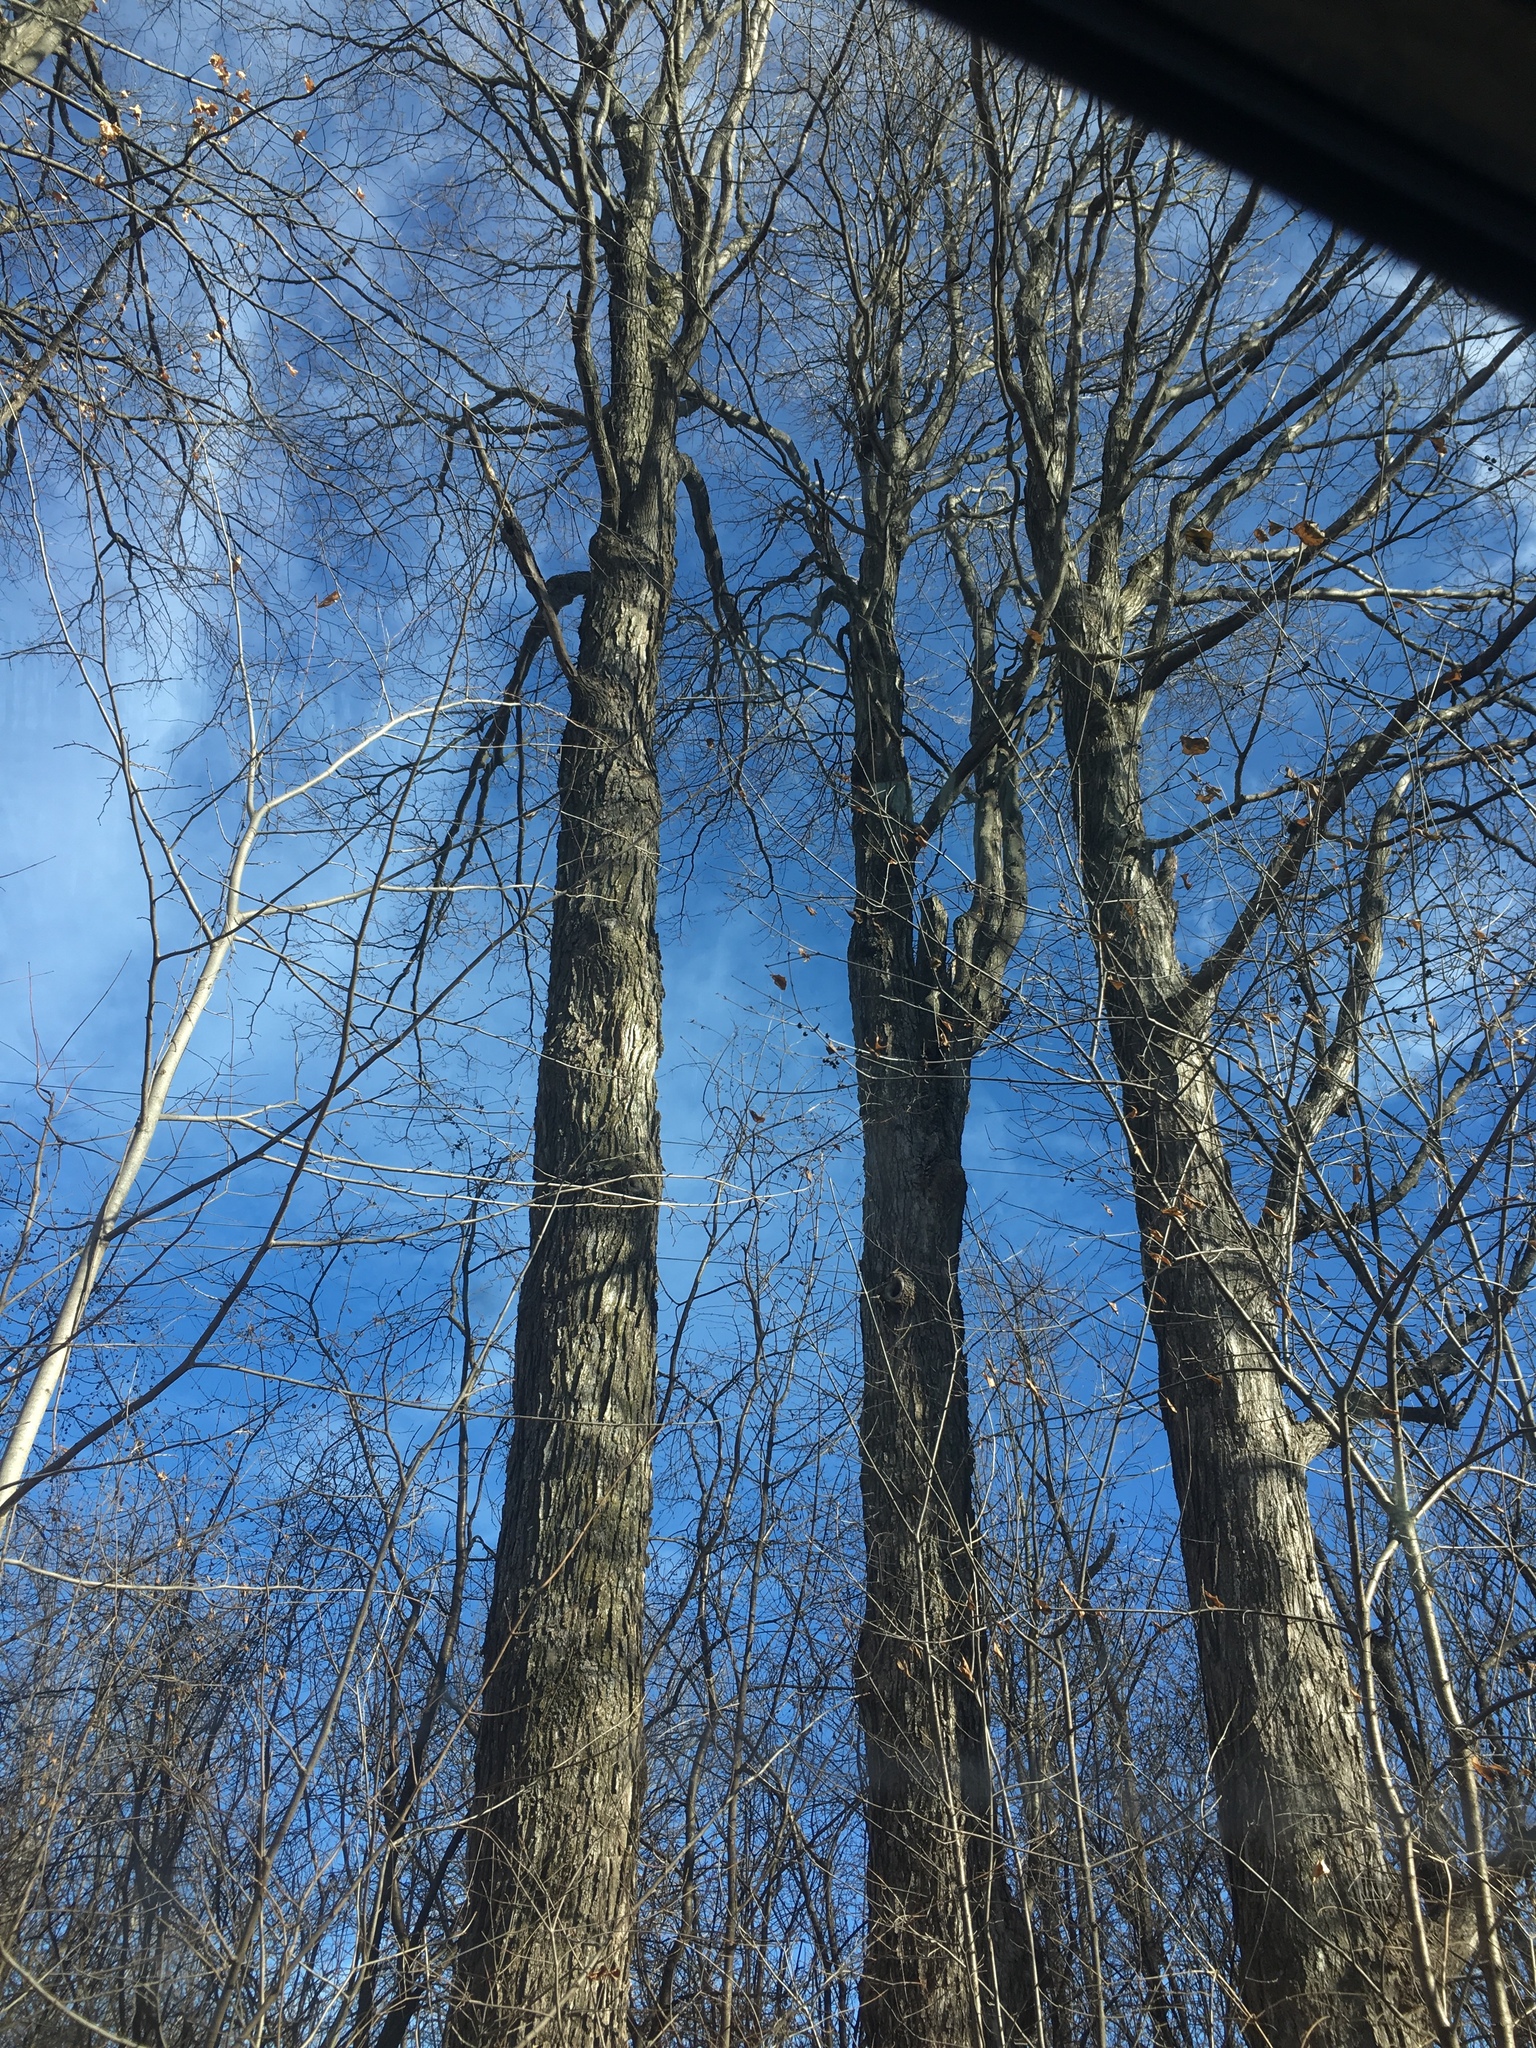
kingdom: Plantae
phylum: Tracheophyta
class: Magnoliopsida
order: Sapindales
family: Sapindaceae
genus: Acer
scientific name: Acer saccharum
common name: Sugar maple
